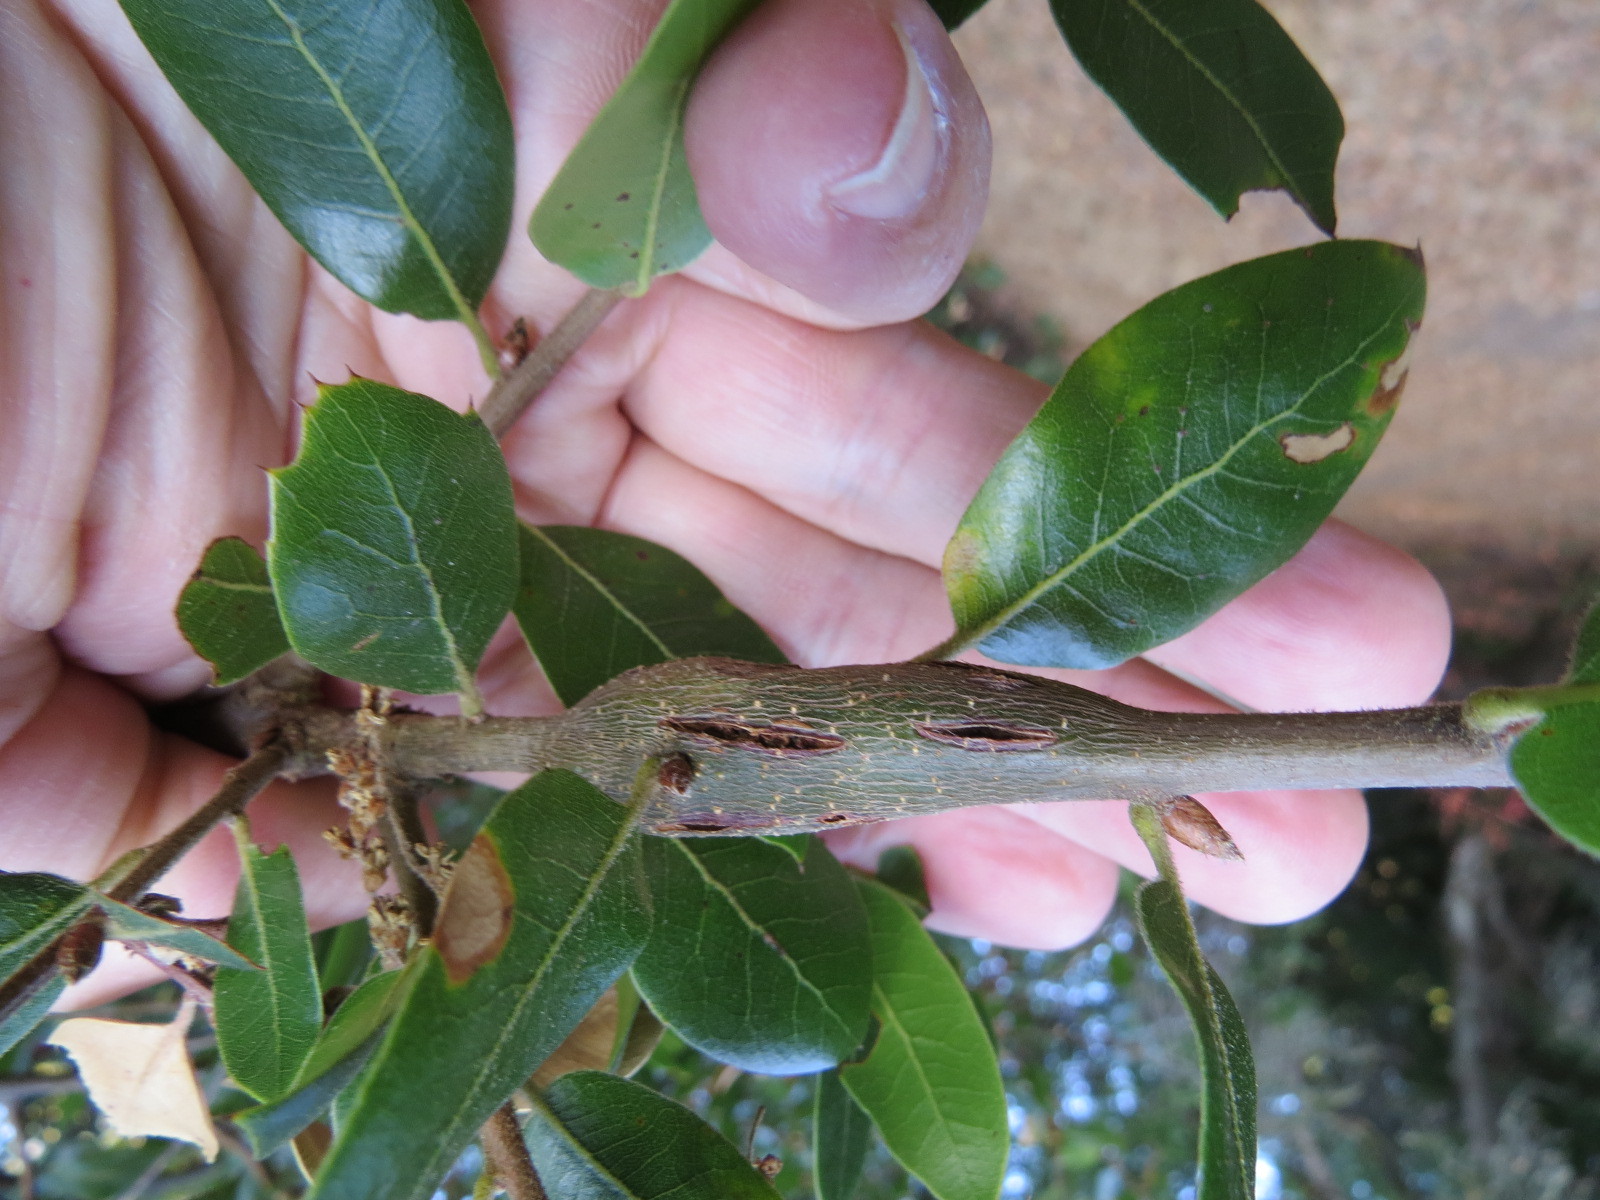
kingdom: Animalia
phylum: Arthropoda
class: Insecta
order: Hymenoptera
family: Cynipidae
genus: Callirhytis
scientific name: Callirhytis
